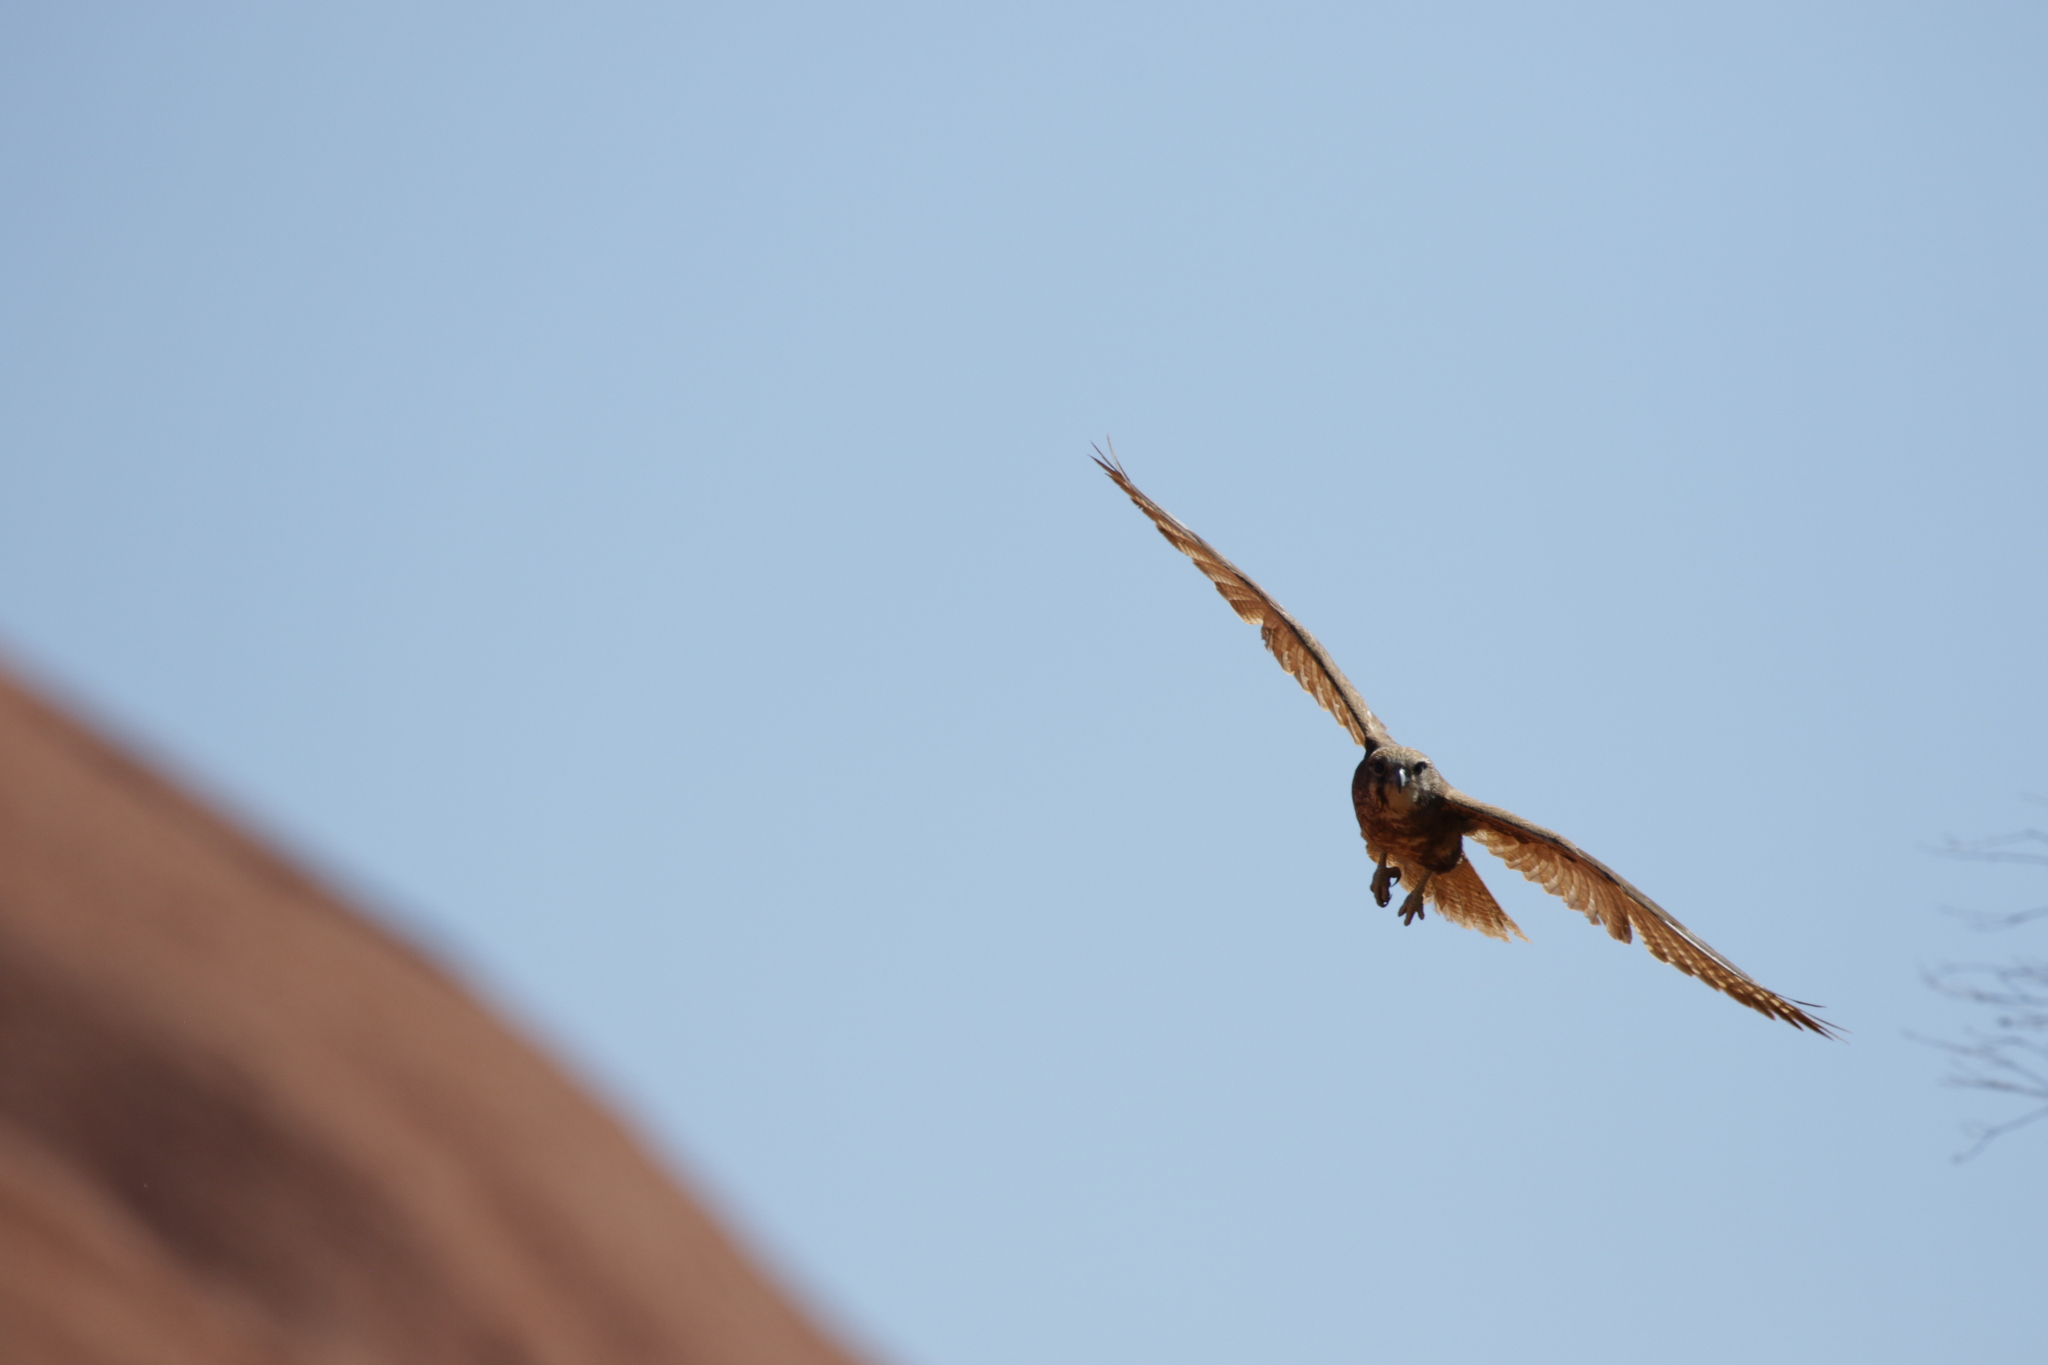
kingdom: Animalia
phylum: Chordata
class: Aves
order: Falconiformes
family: Falconidae
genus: Falco
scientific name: Falco berigora
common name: Brown falcon
